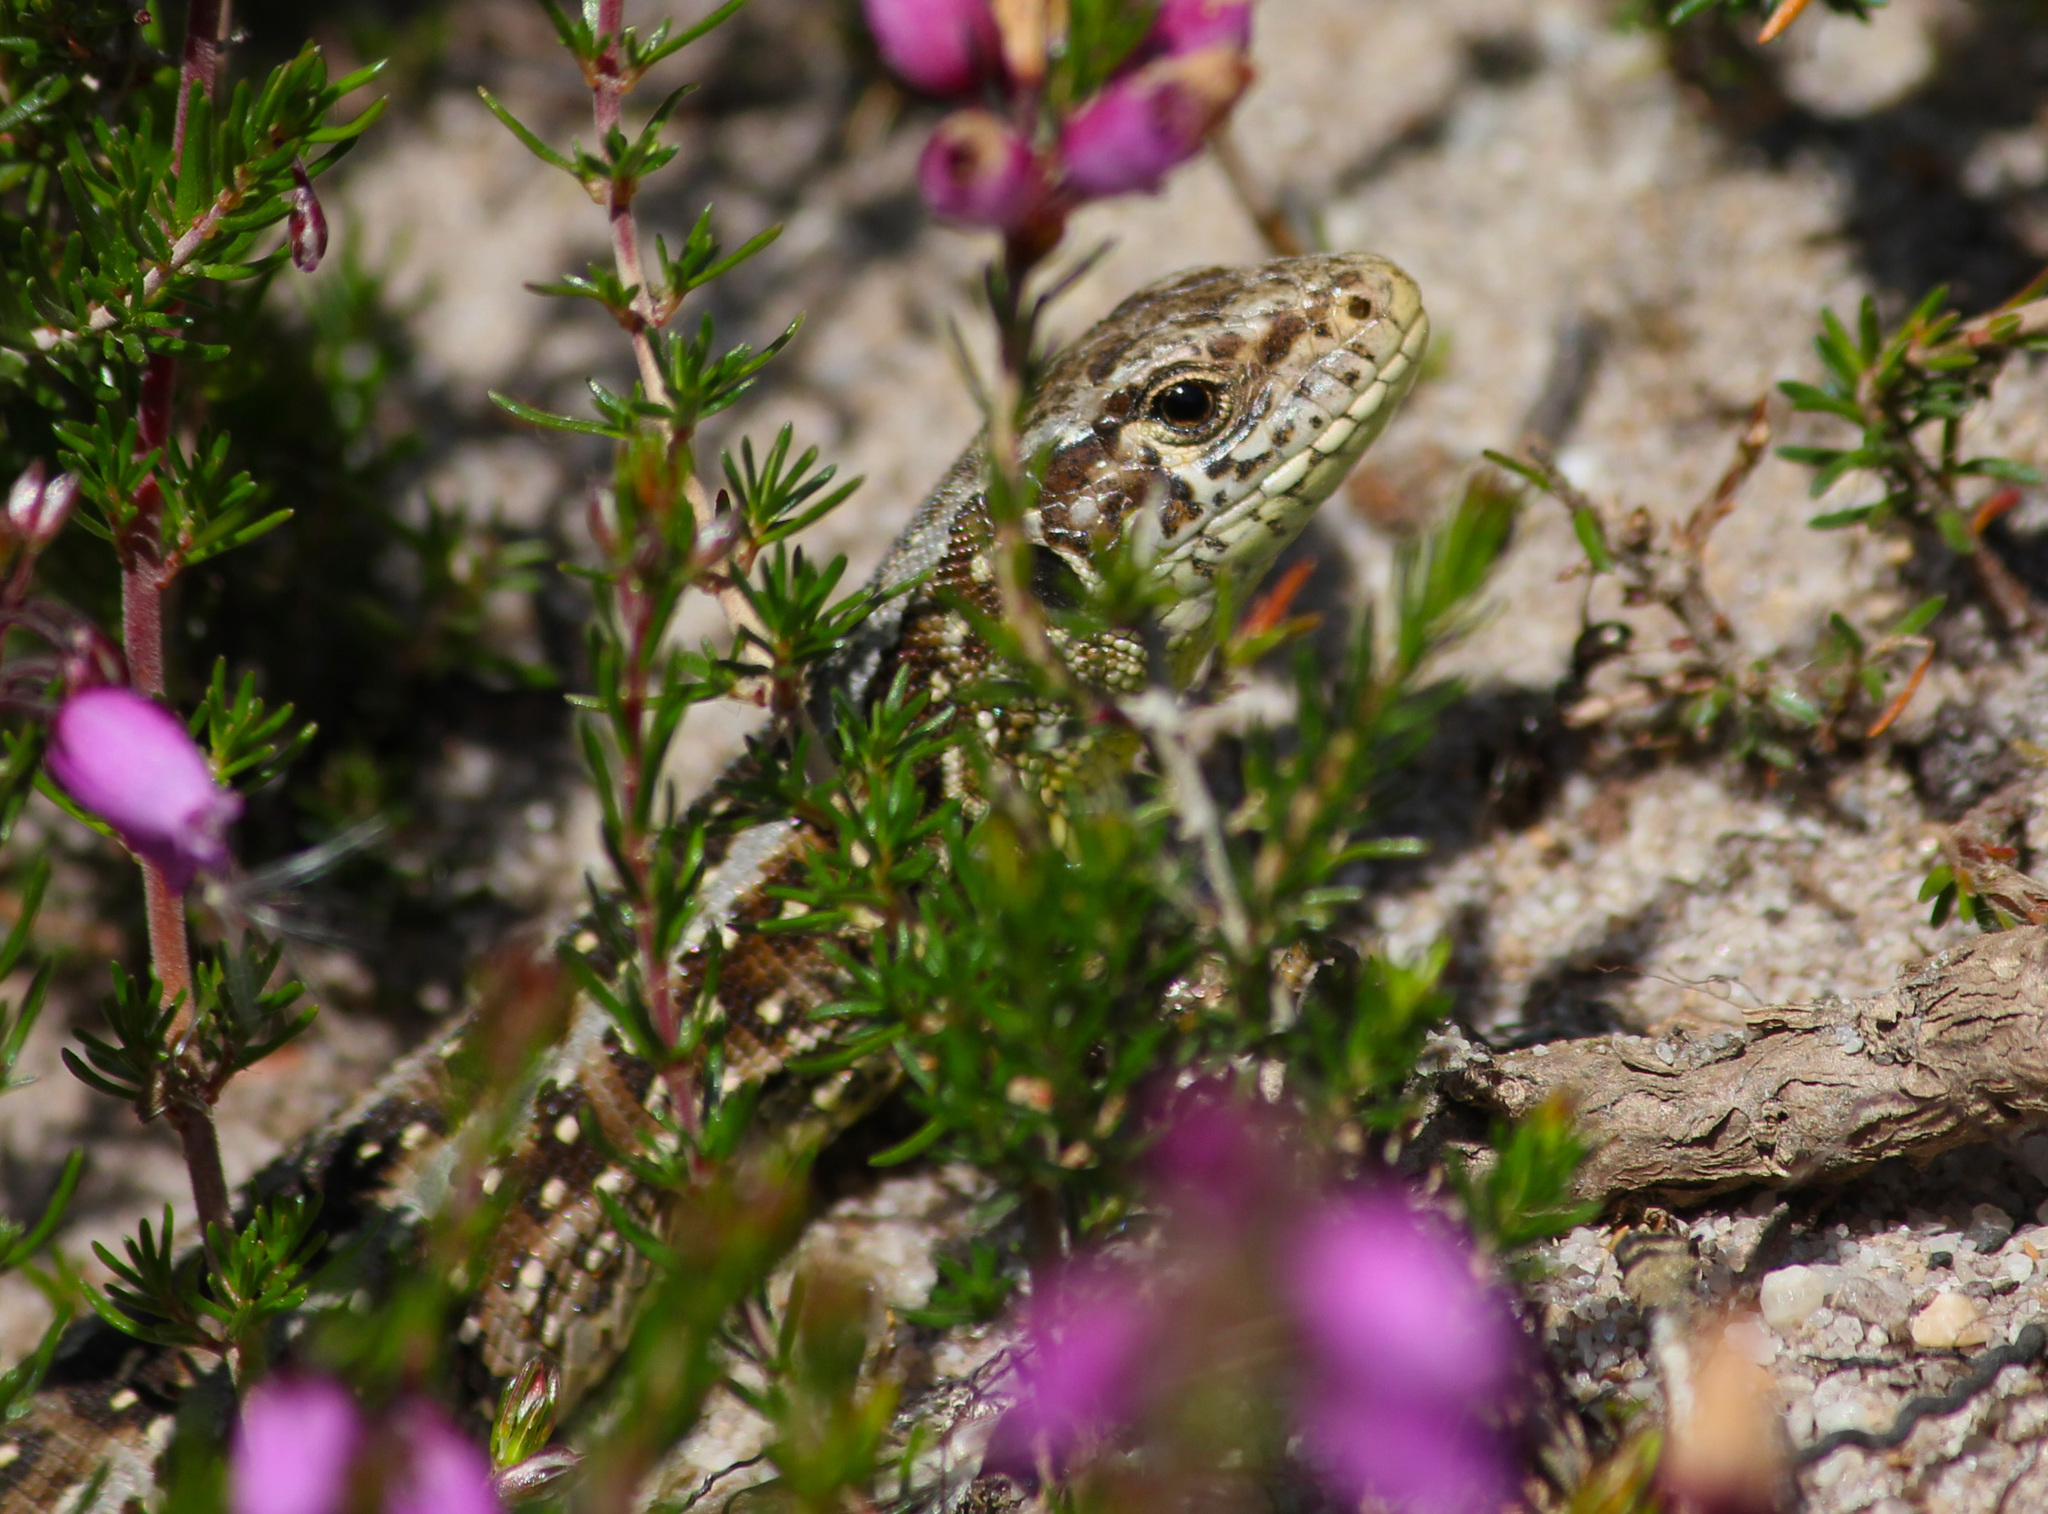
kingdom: Animalia
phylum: Chordata
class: Squamata
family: Lacertidae
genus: Lacerta
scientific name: Lacerta agilis
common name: Sand lizard
